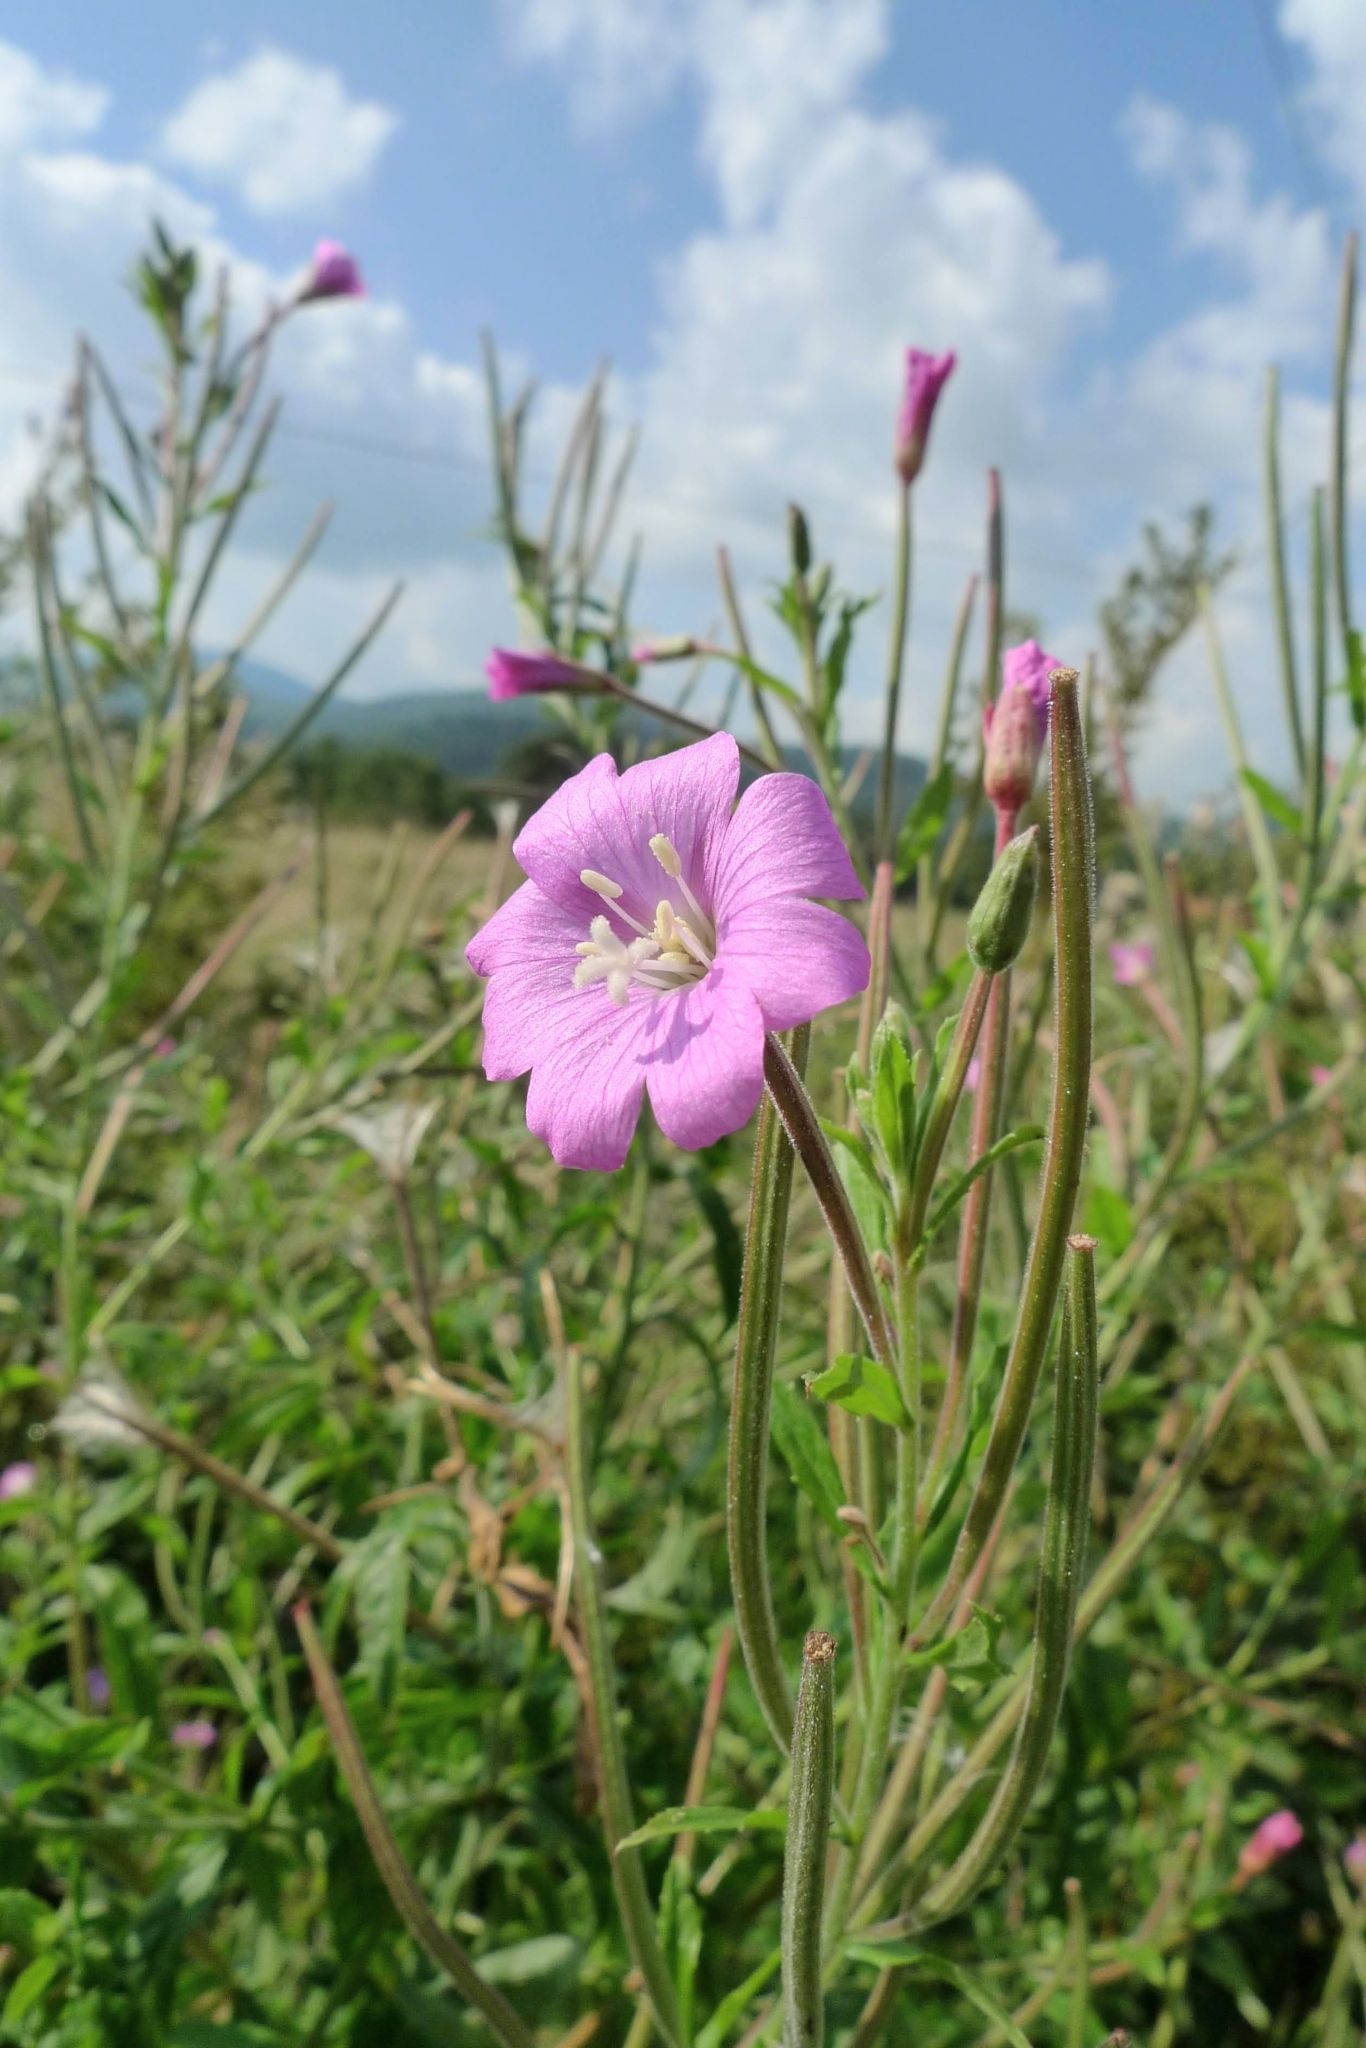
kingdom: Plantae
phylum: Tracheophyta
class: Magnoliopsida
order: Myrtales
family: Onagraceae
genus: Epilobium
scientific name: Epilobium hirsutum
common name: Great willowherb
